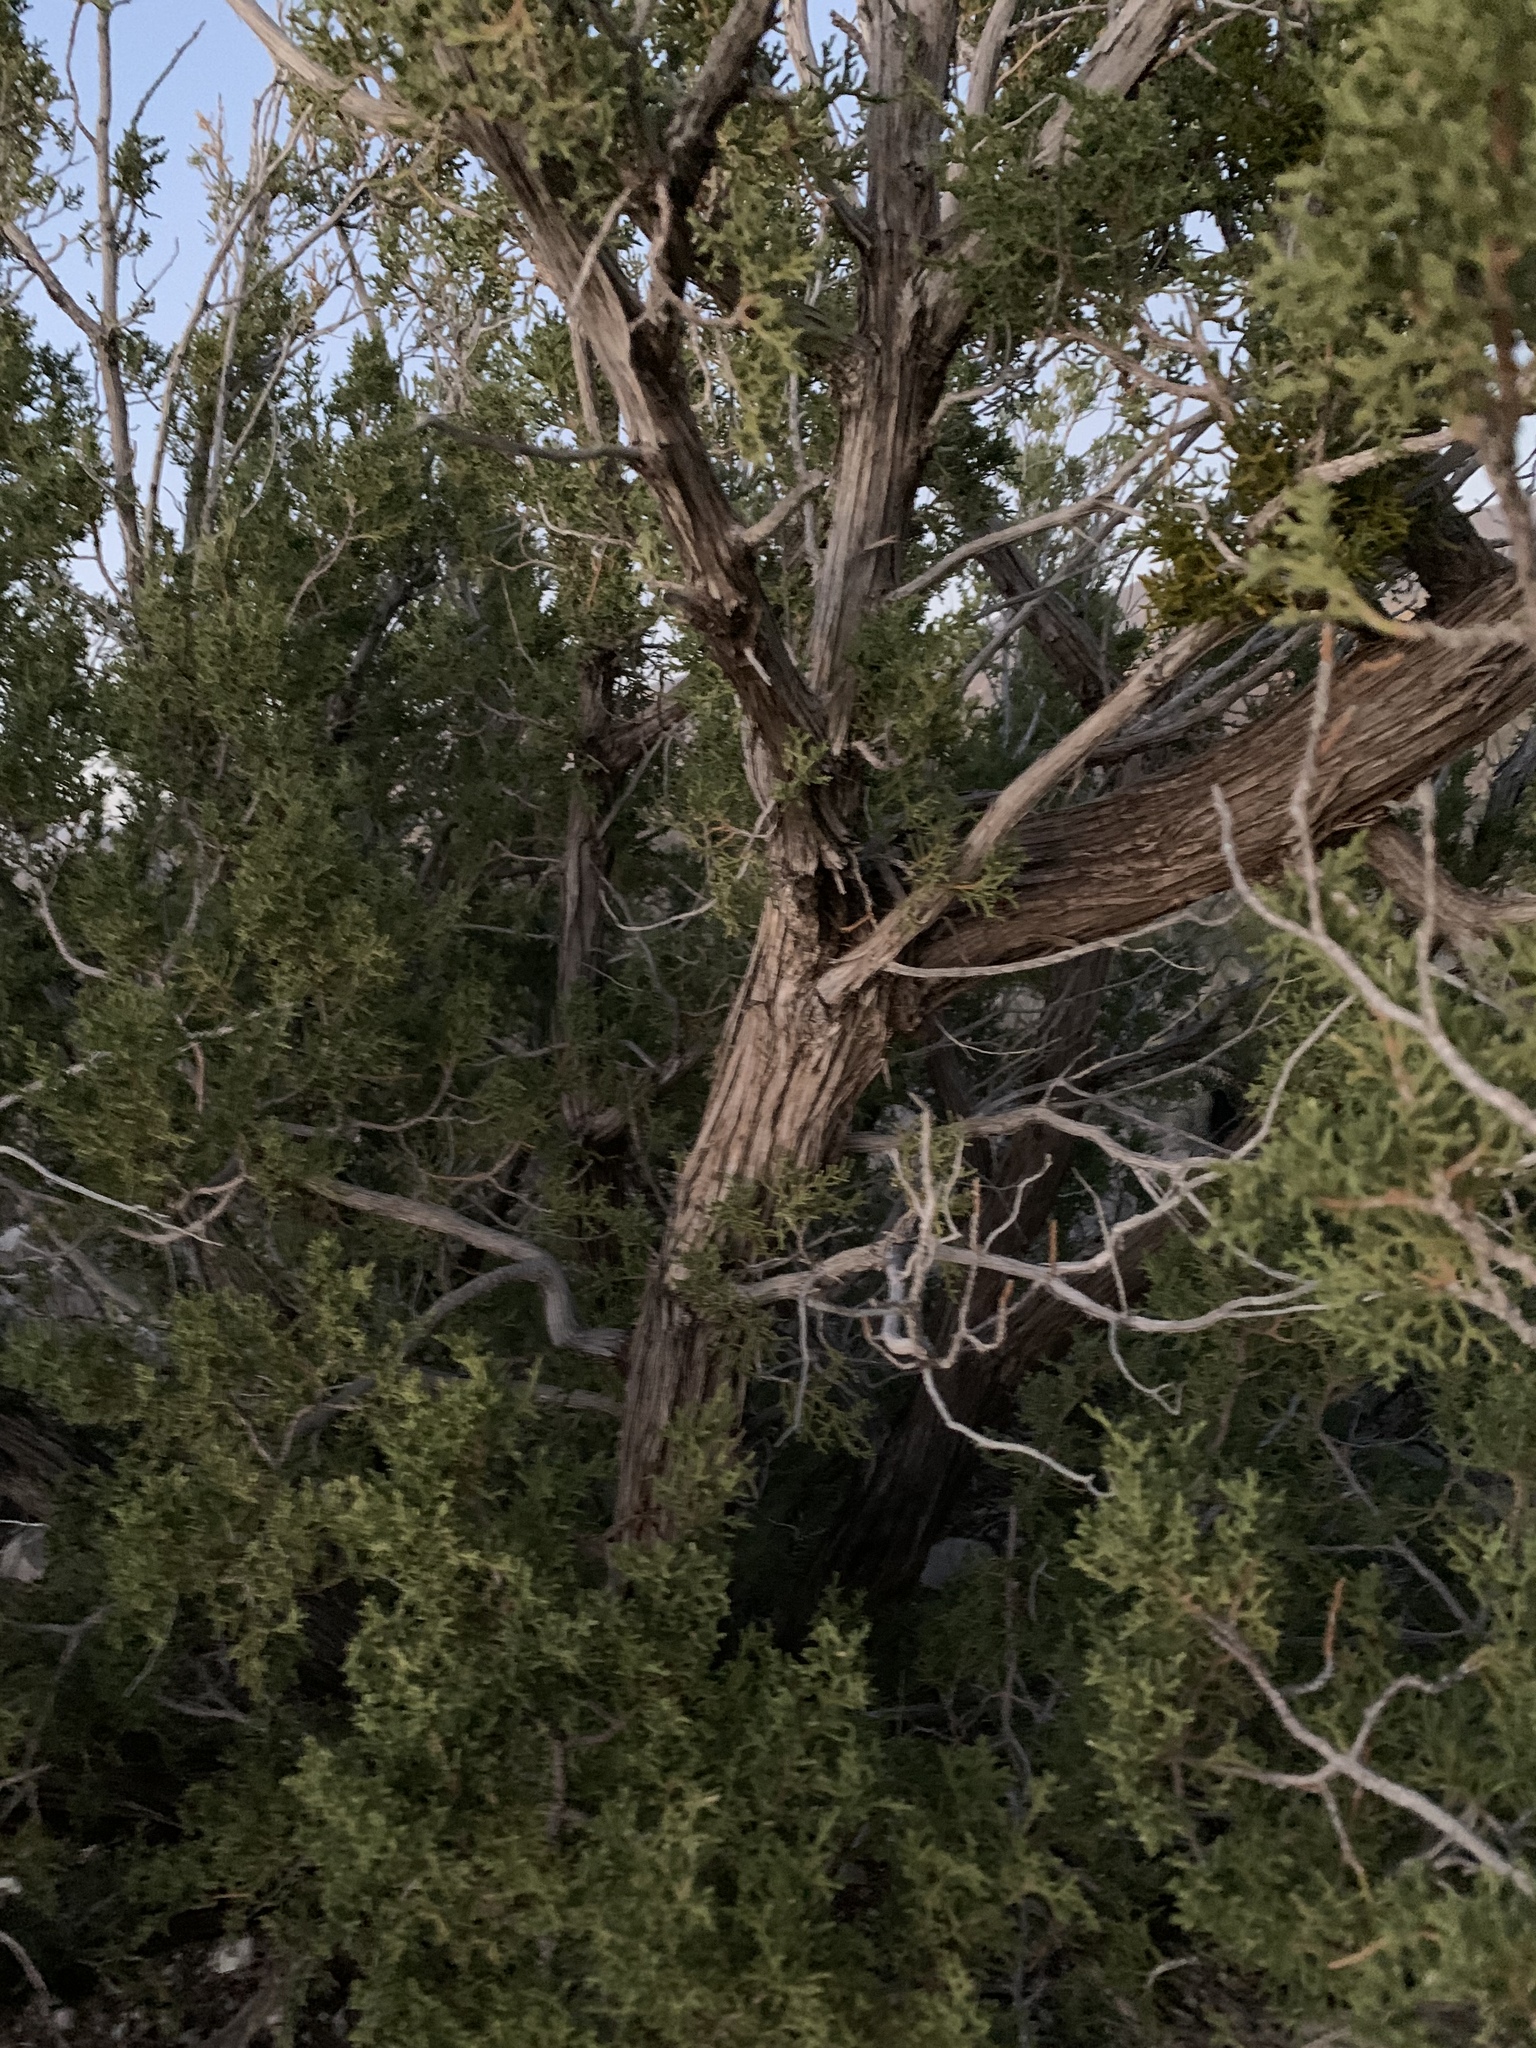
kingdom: Plantae
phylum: Tracheophyta
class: Pinopsida
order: Pinales
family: Cupressaceae
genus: Juniperus
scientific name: Juniperus monosperma
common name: One-seed juniper
